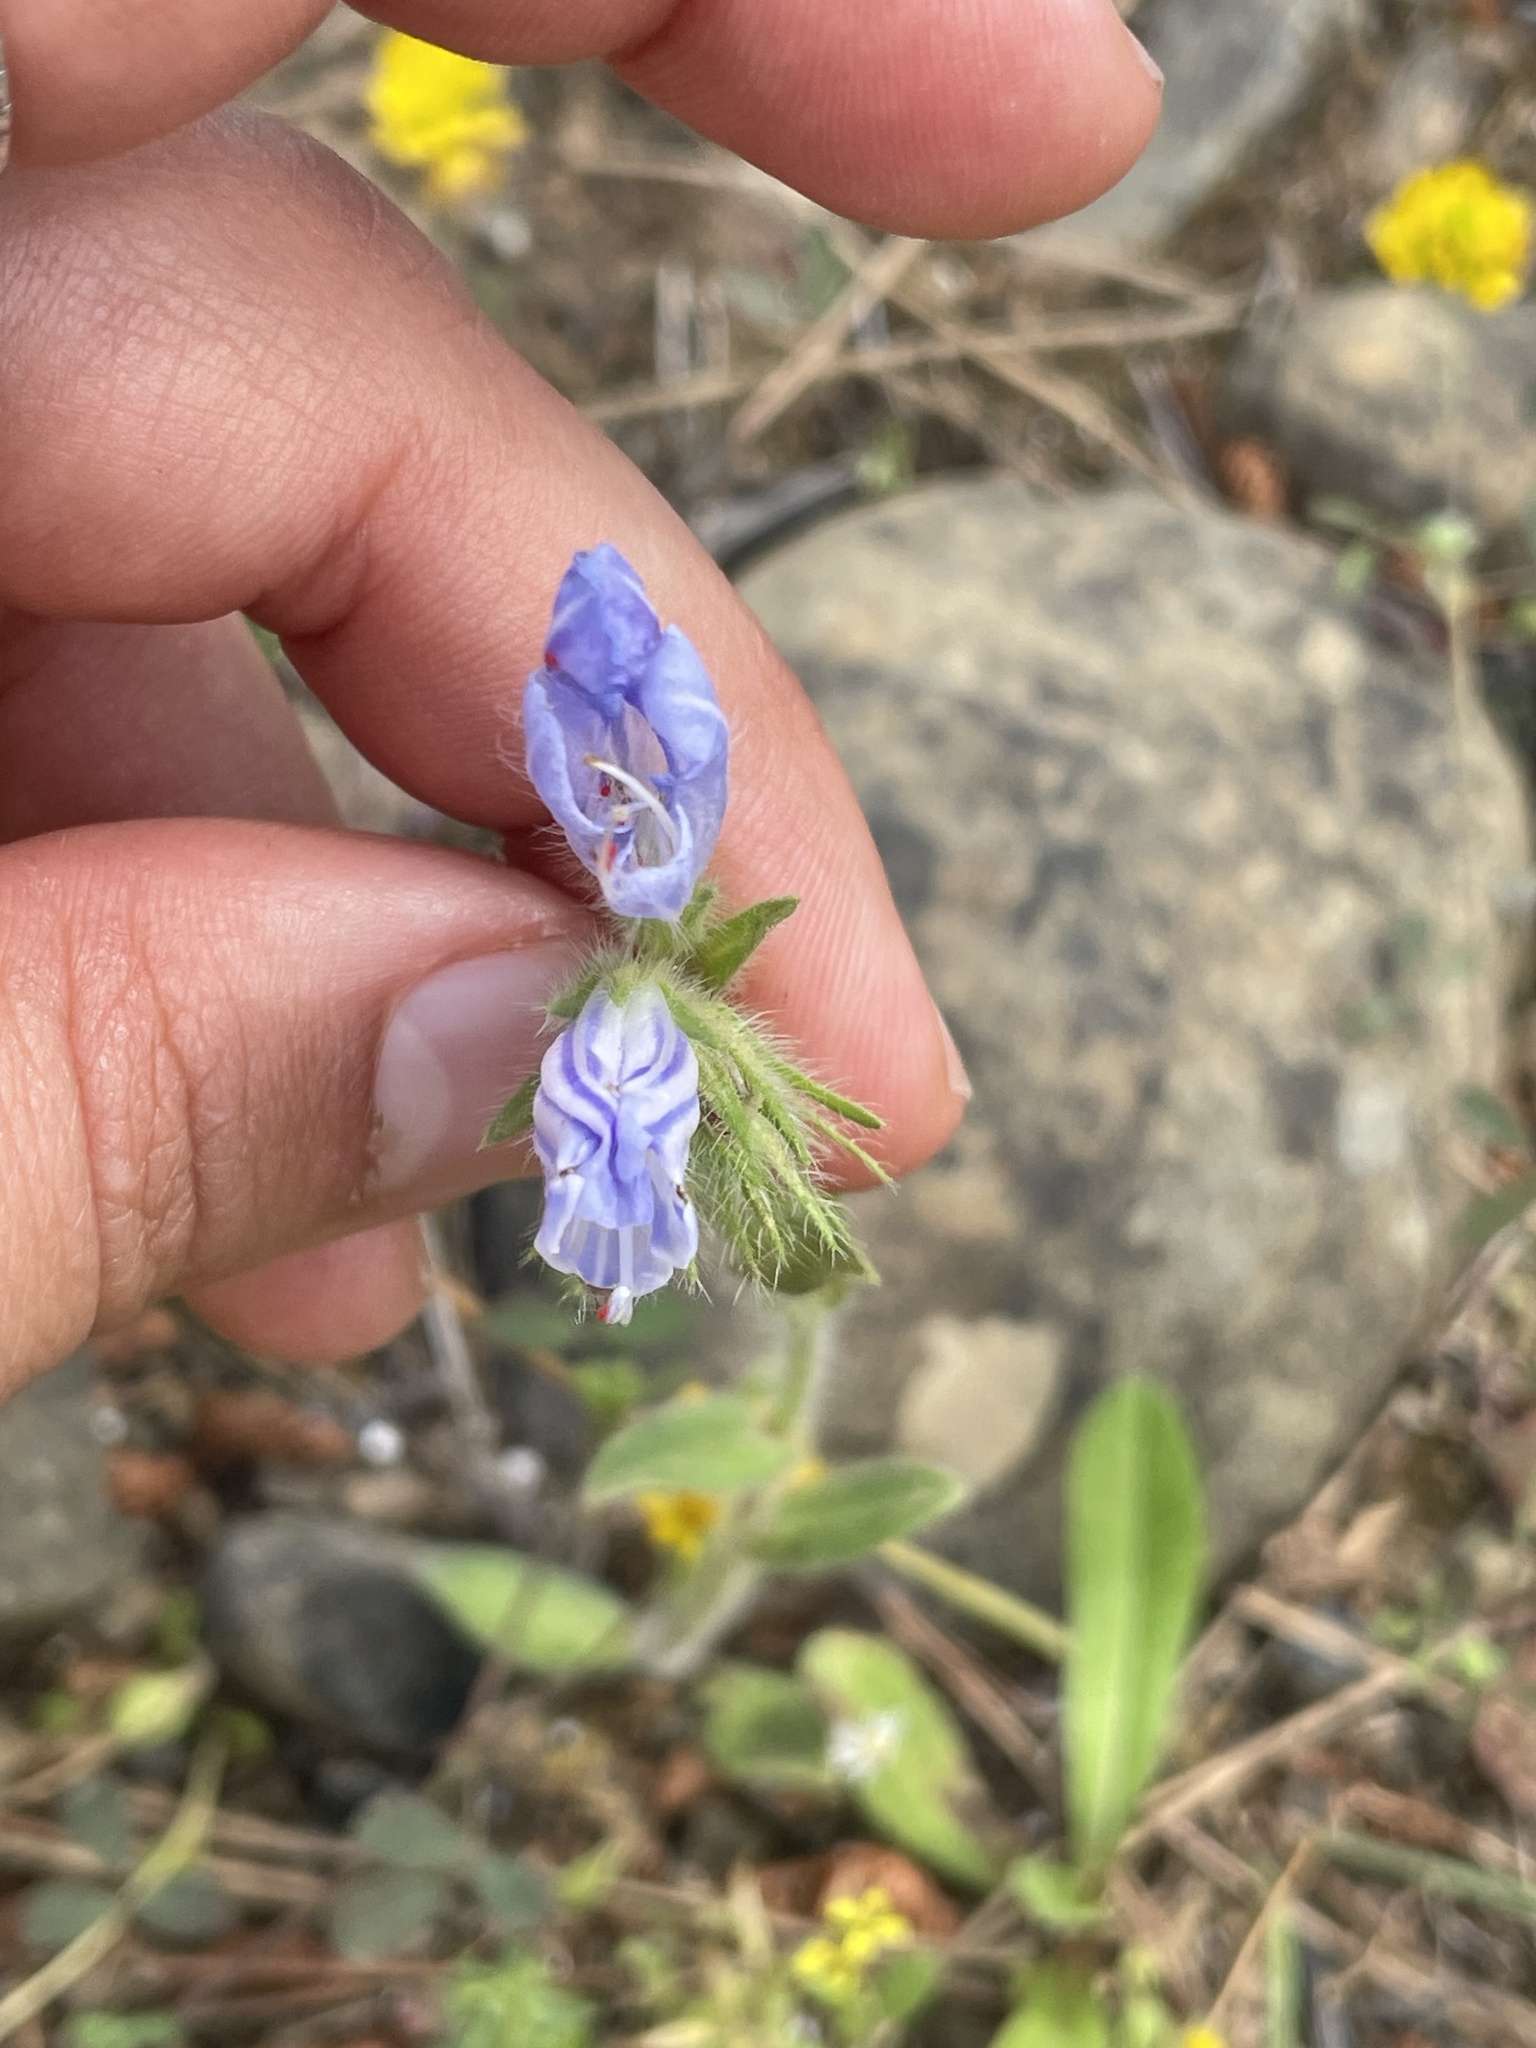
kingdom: Plantae
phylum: Tracheophyta
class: Magnoliopsida
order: Boraginales
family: Boraginaceae
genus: Echium
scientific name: Echium plantagineum
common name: Purple viper's-bugloss
